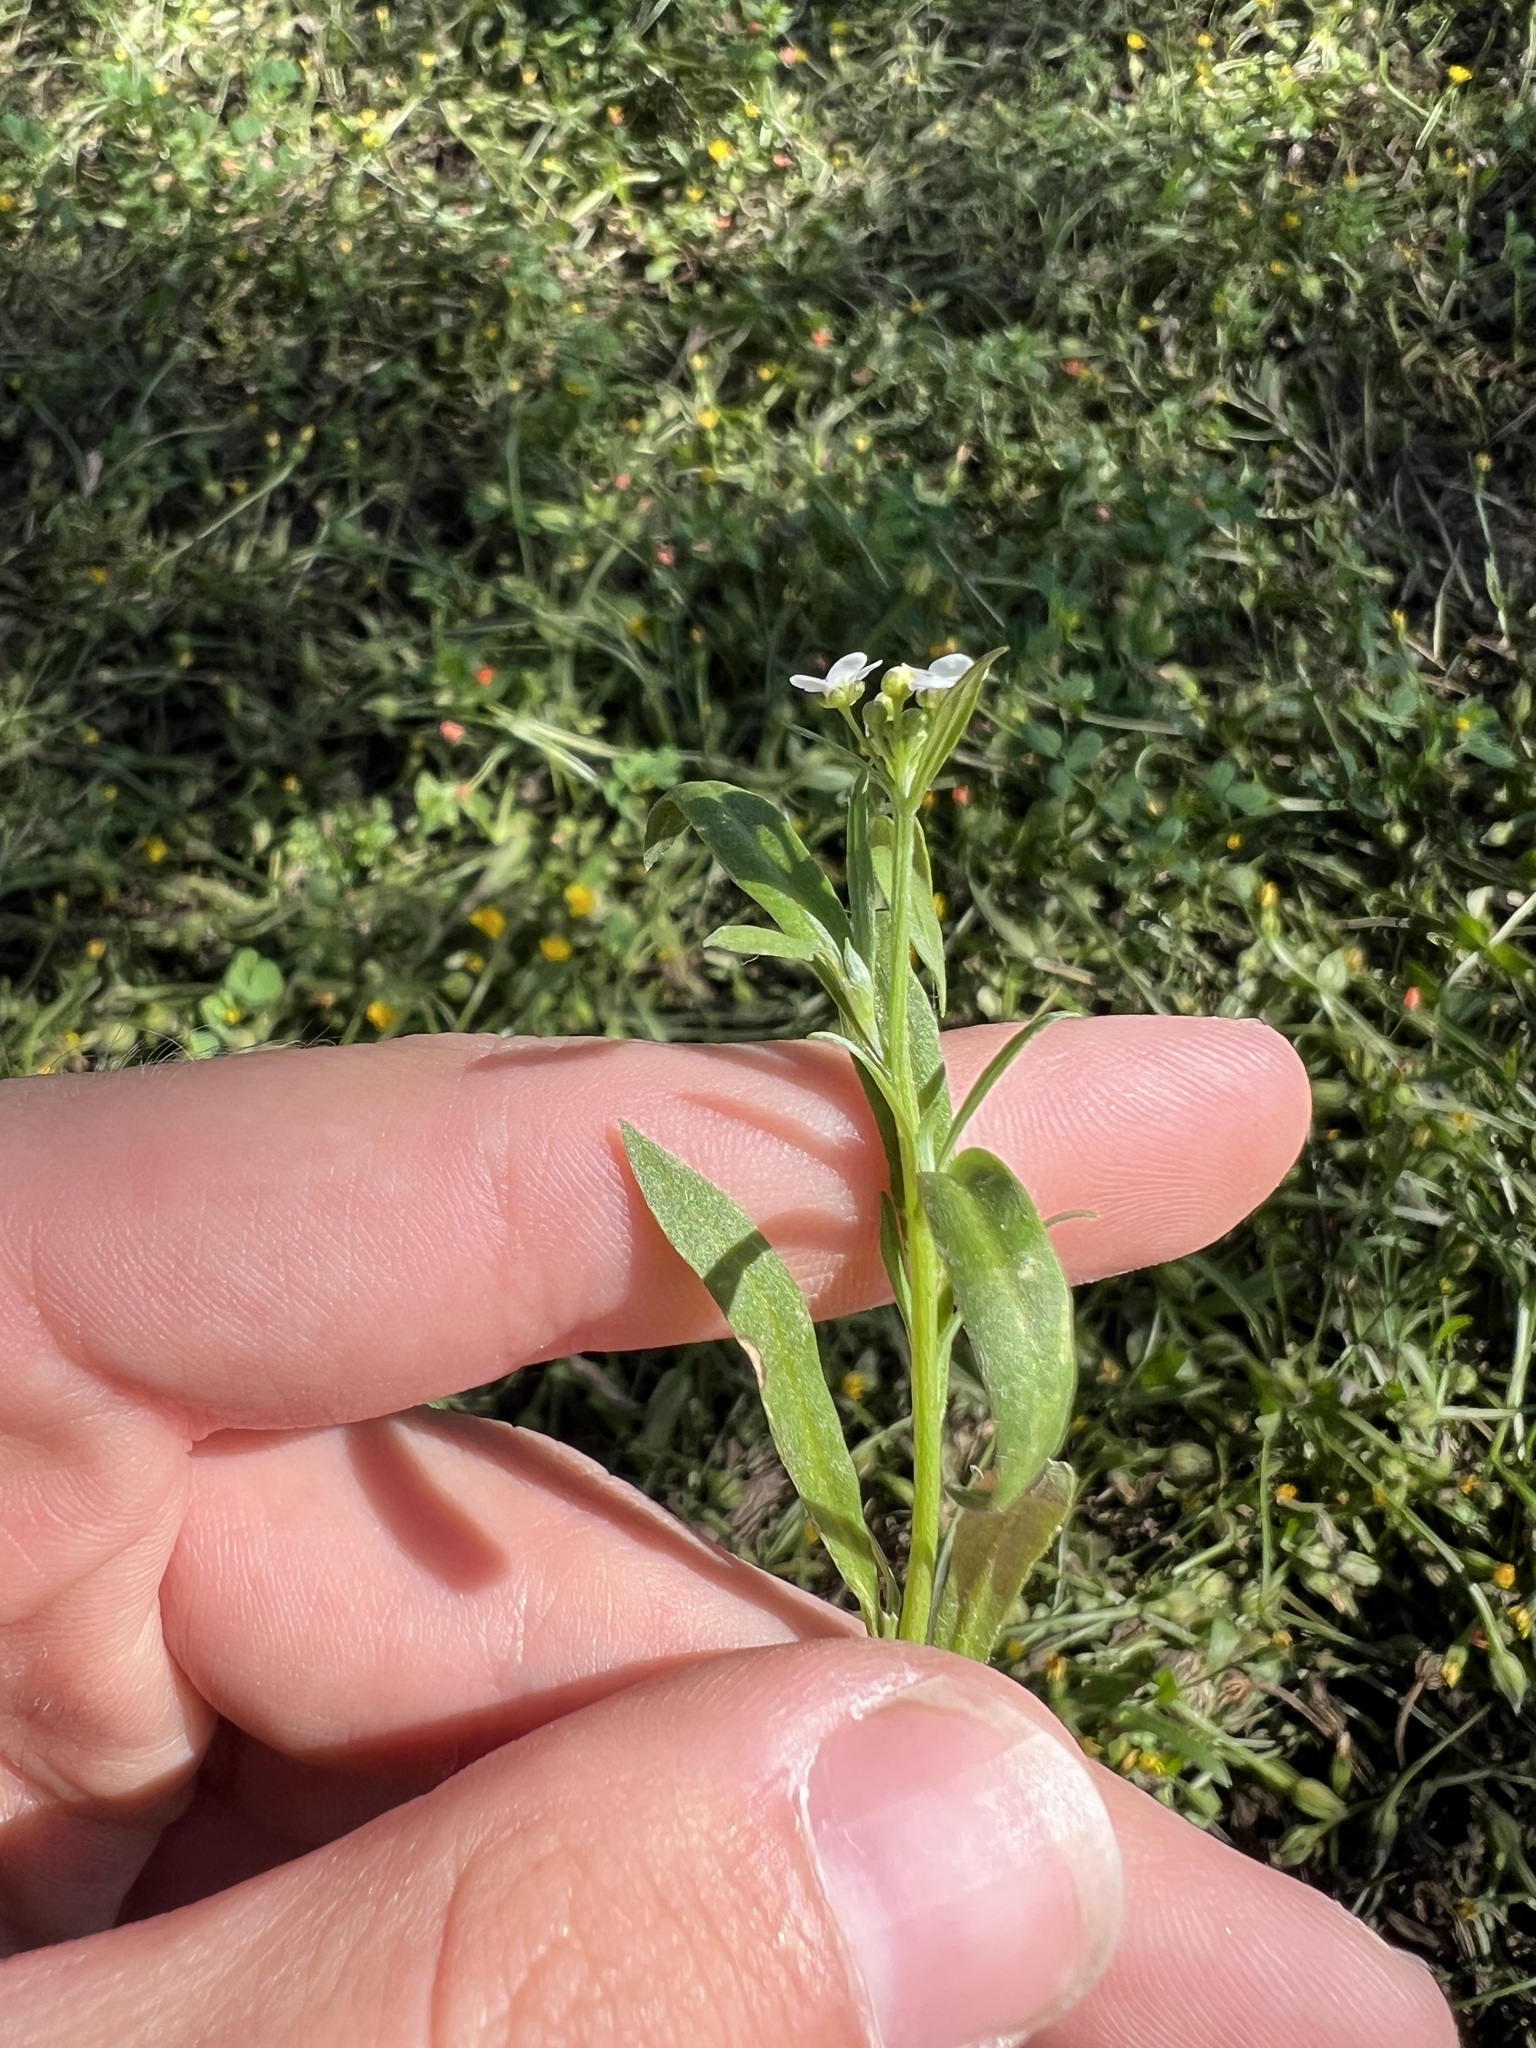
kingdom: Plantae
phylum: Tracheophyta
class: Magnoliopsida
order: Brassicales
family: Brassicaceae
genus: Lobularia
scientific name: Lobularia maritima
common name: Sweet alison
